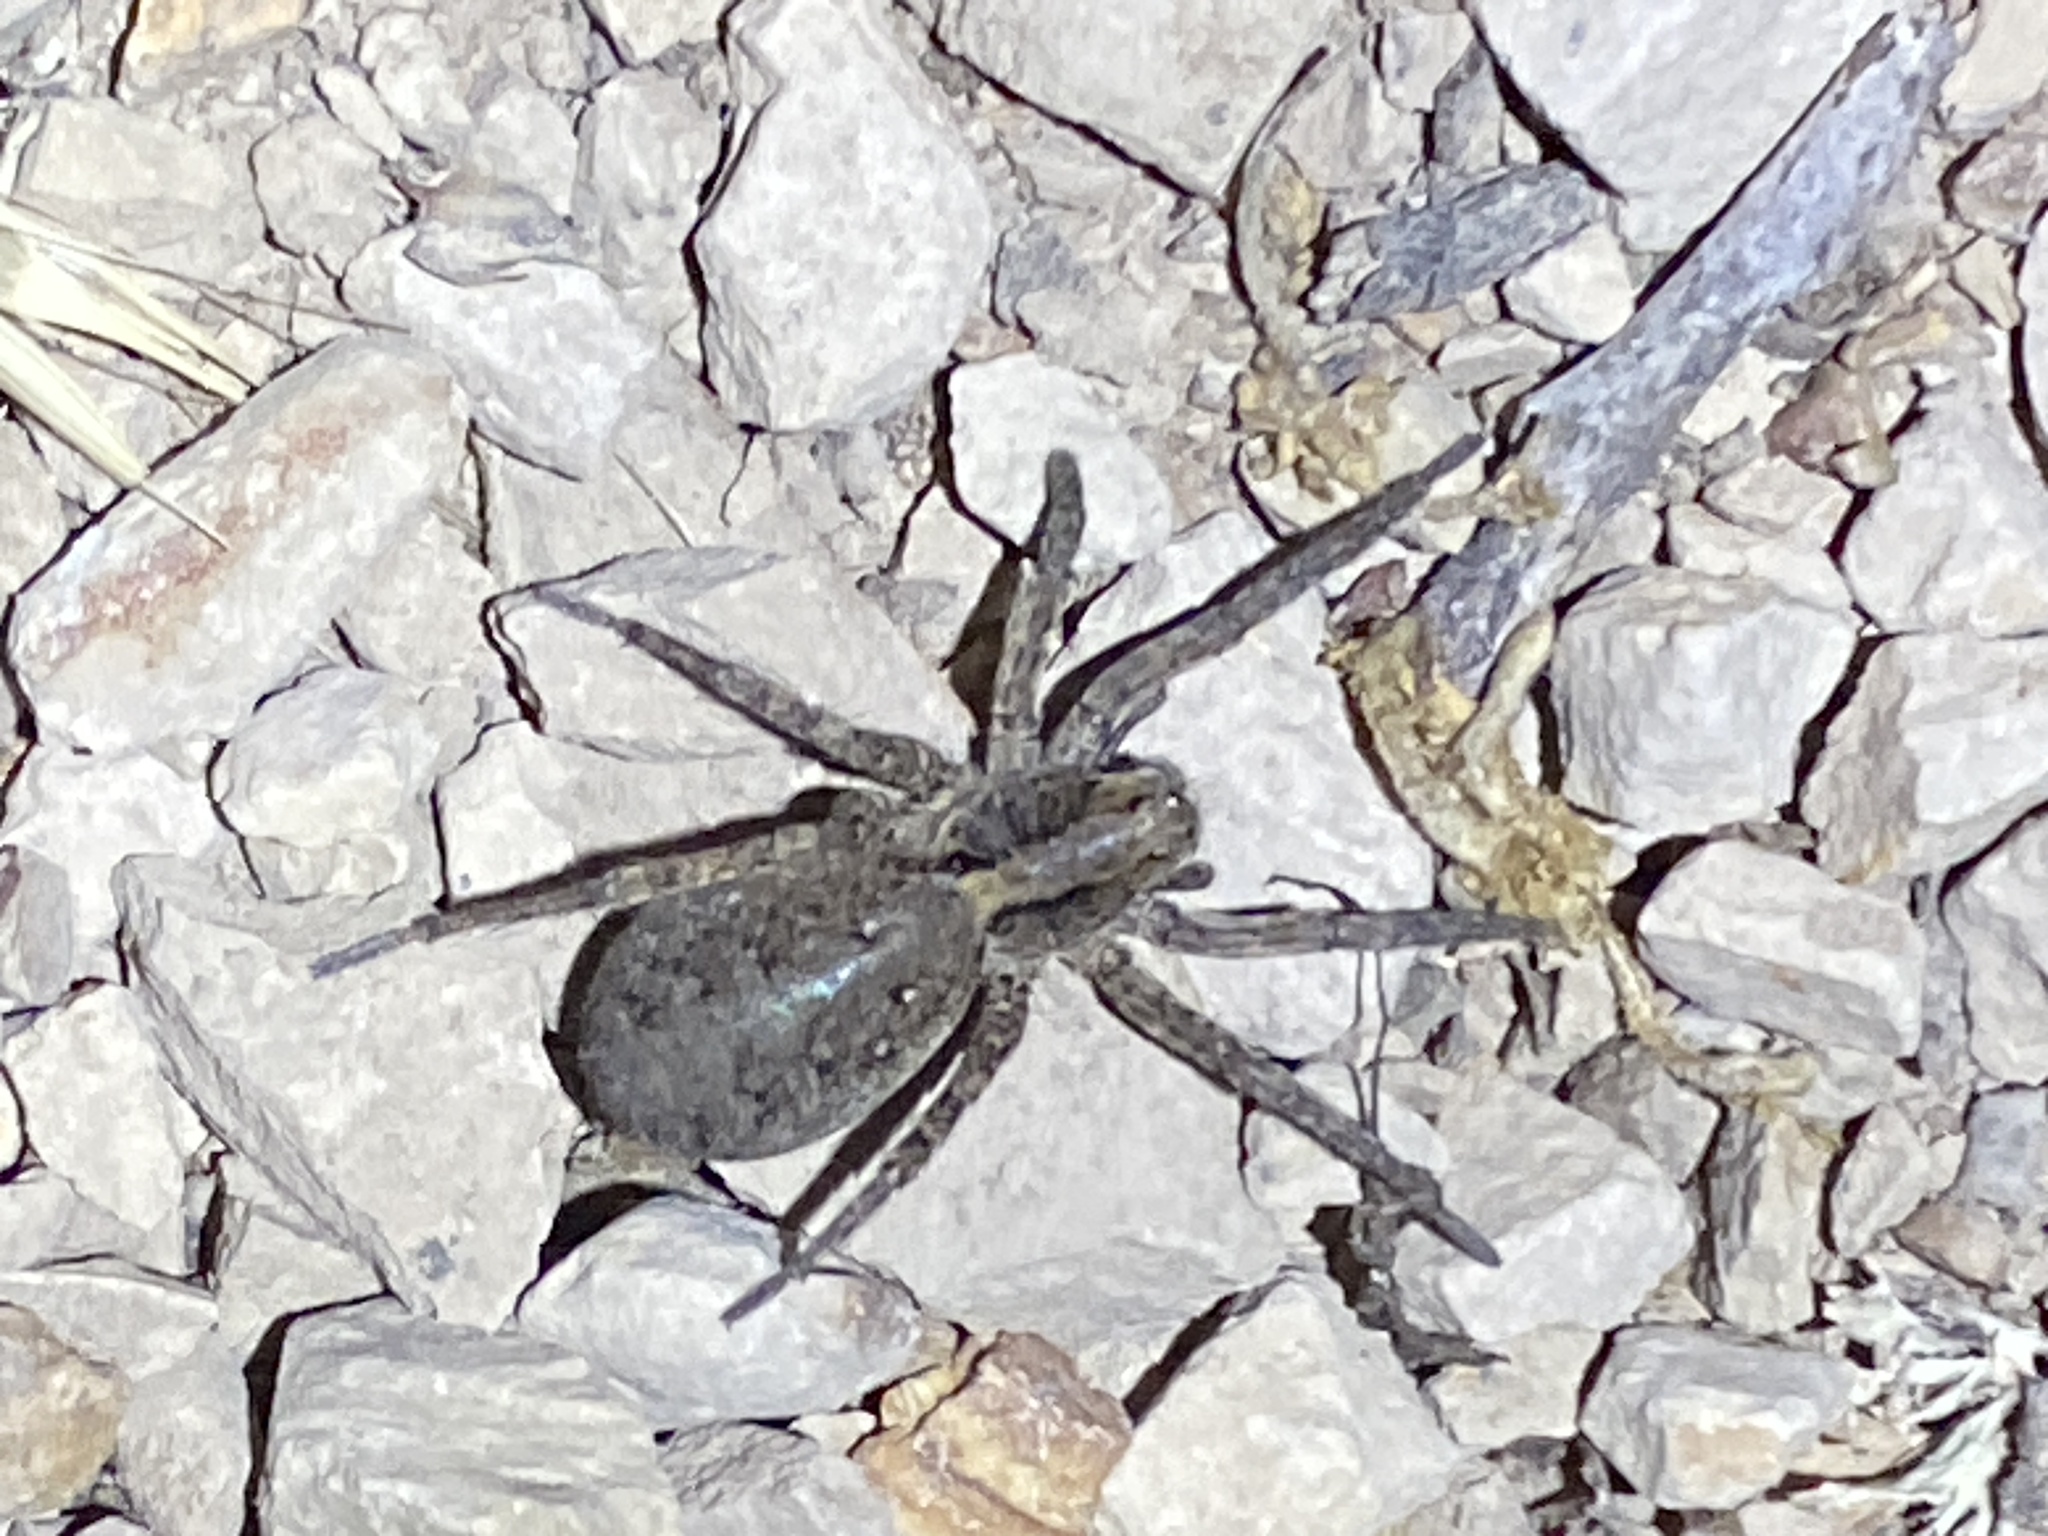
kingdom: Animalia
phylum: Arthropoda
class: Arachnida
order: Araneae
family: Lycosidae
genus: Alopecosa
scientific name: Alopecosa kochi
